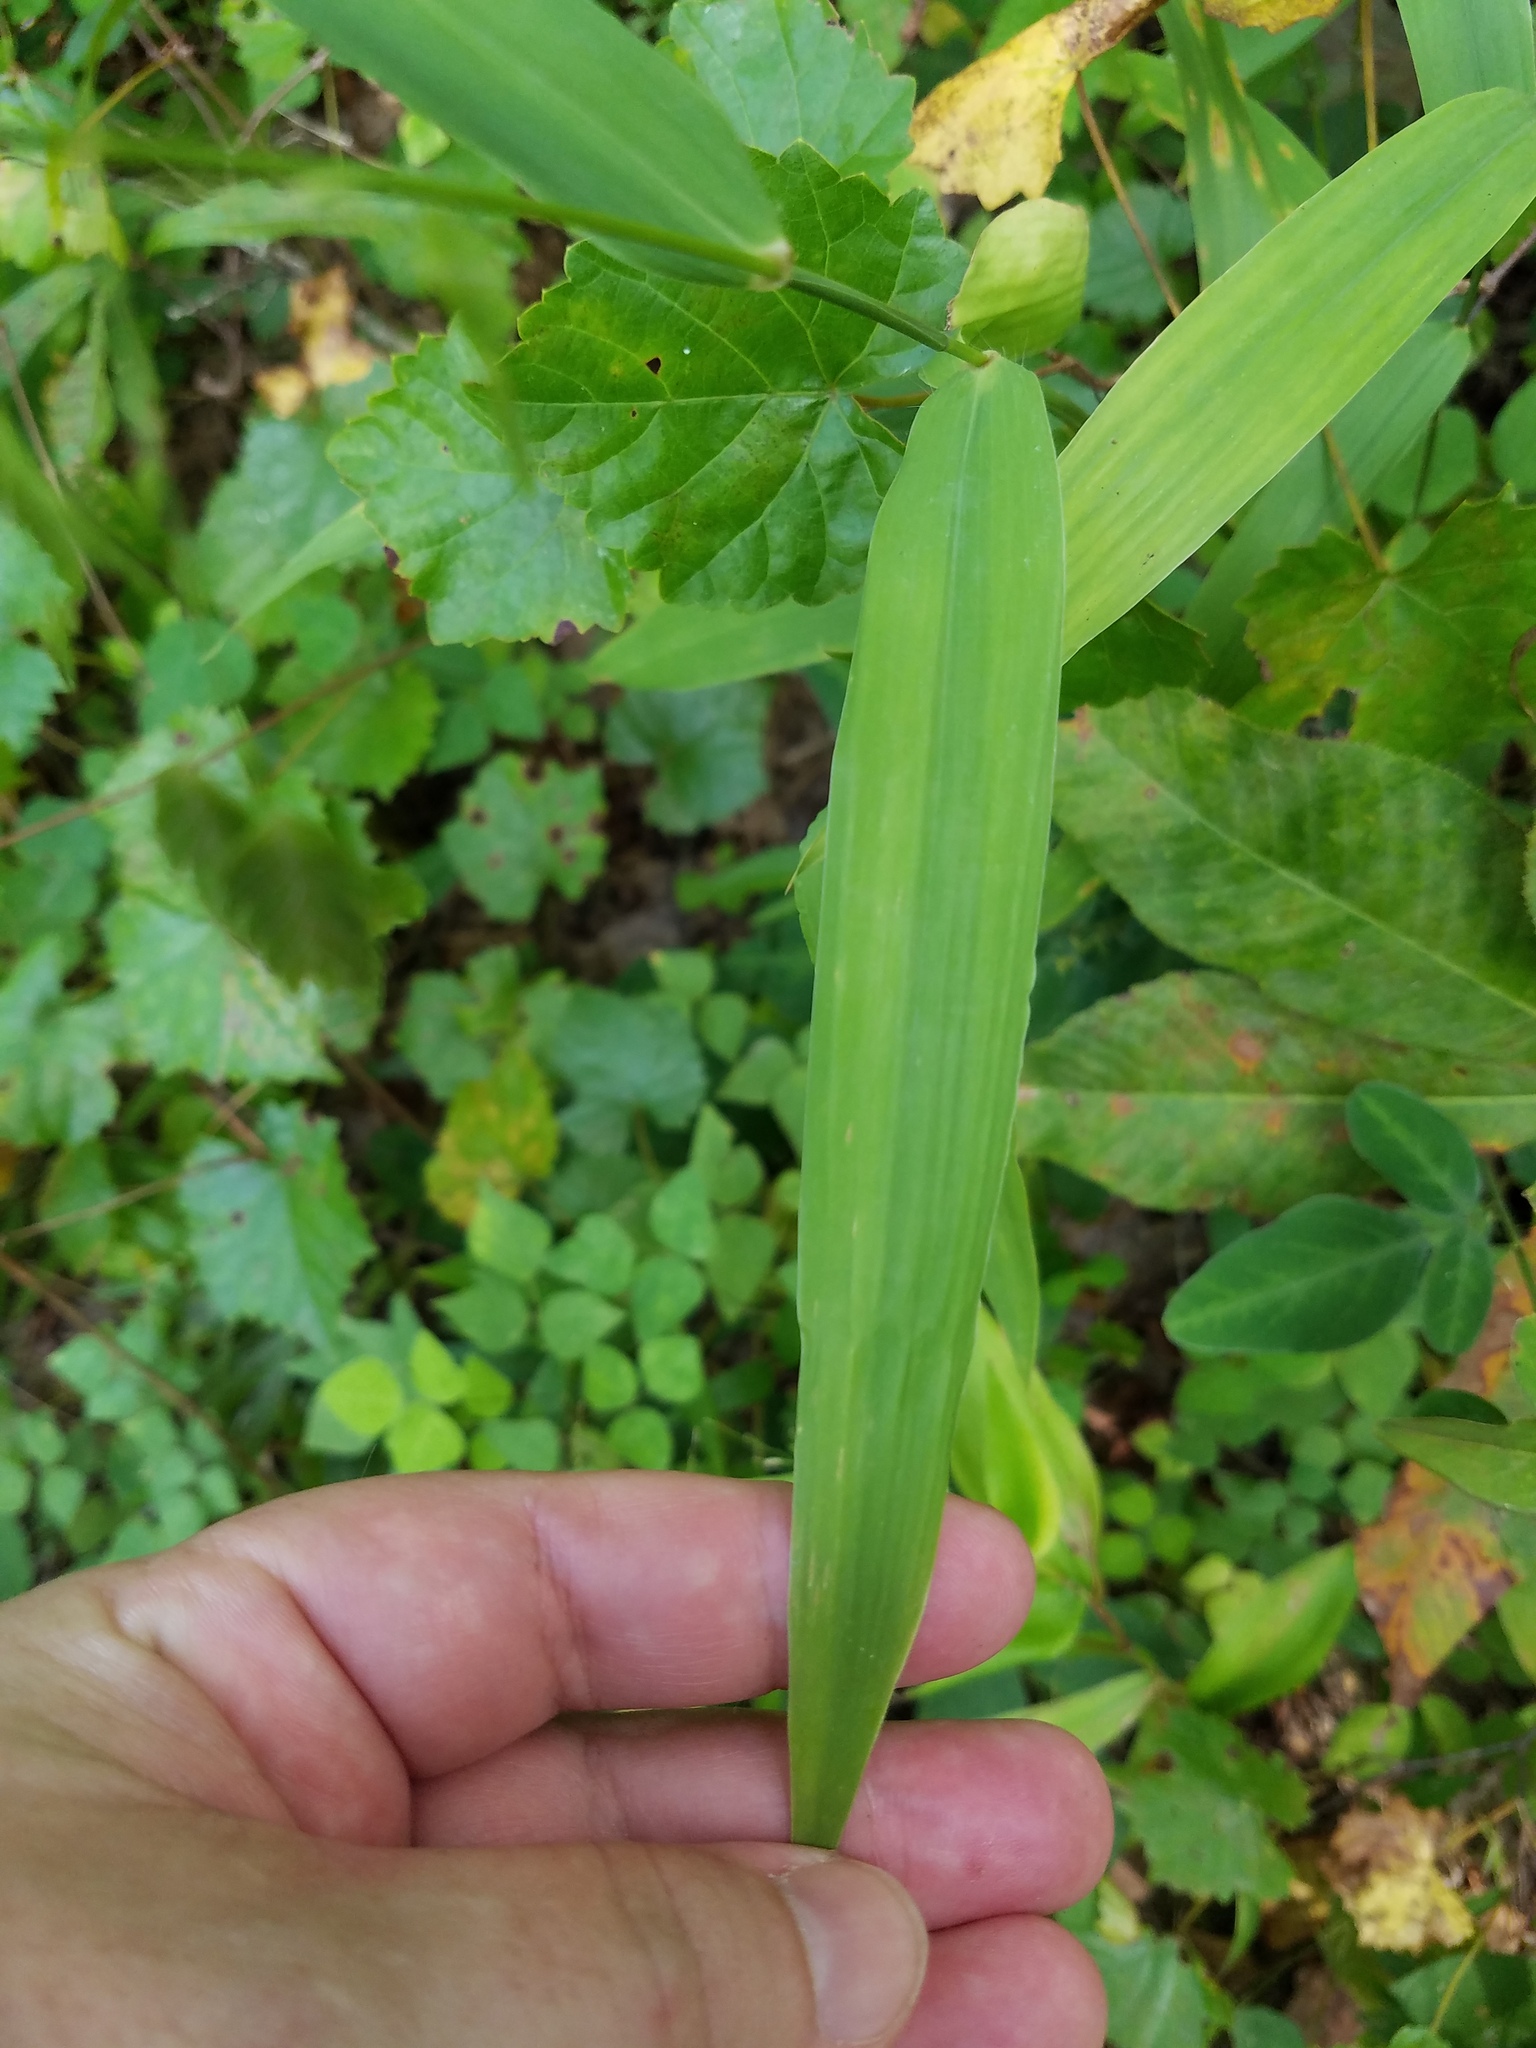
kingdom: Plantae
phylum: Tracheophyta
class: Liliopsida
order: Poales
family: Poaceae
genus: Chasmanthium
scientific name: Chasmanthium latifolium
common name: Broad-leaved chasmanthium
